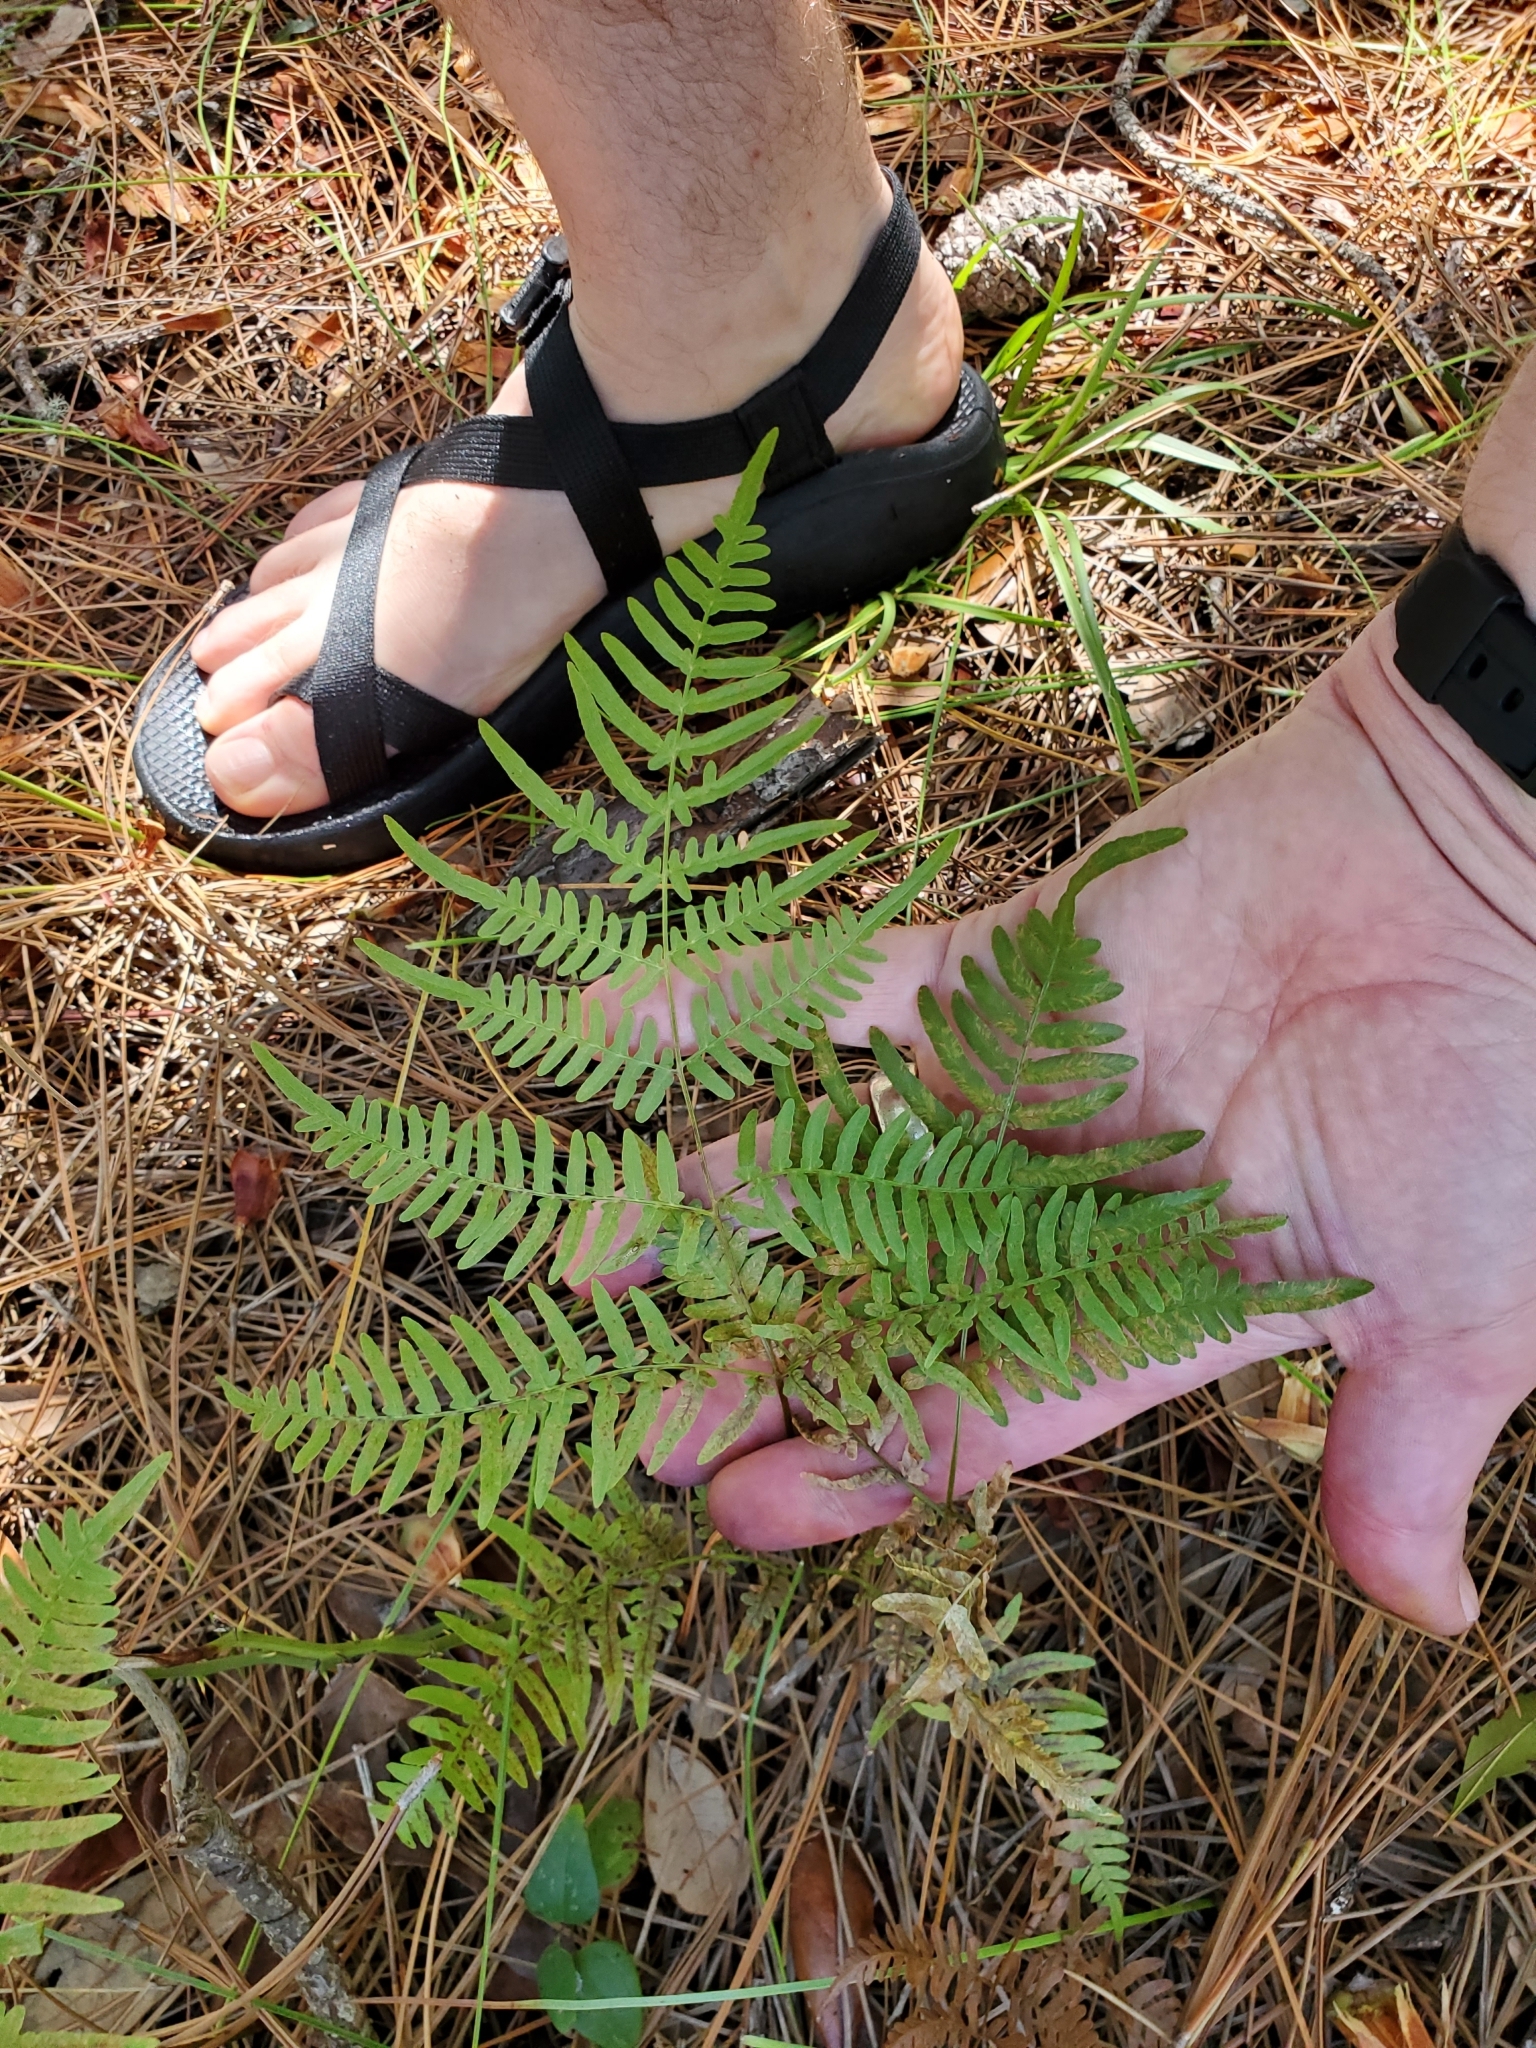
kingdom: Plantae
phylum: Tracheophyta
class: Polypodiopsida
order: Polypodiales
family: Dennstaedtiaceae
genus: Pteridium
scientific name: Pteridium aquilinum
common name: Bracken
